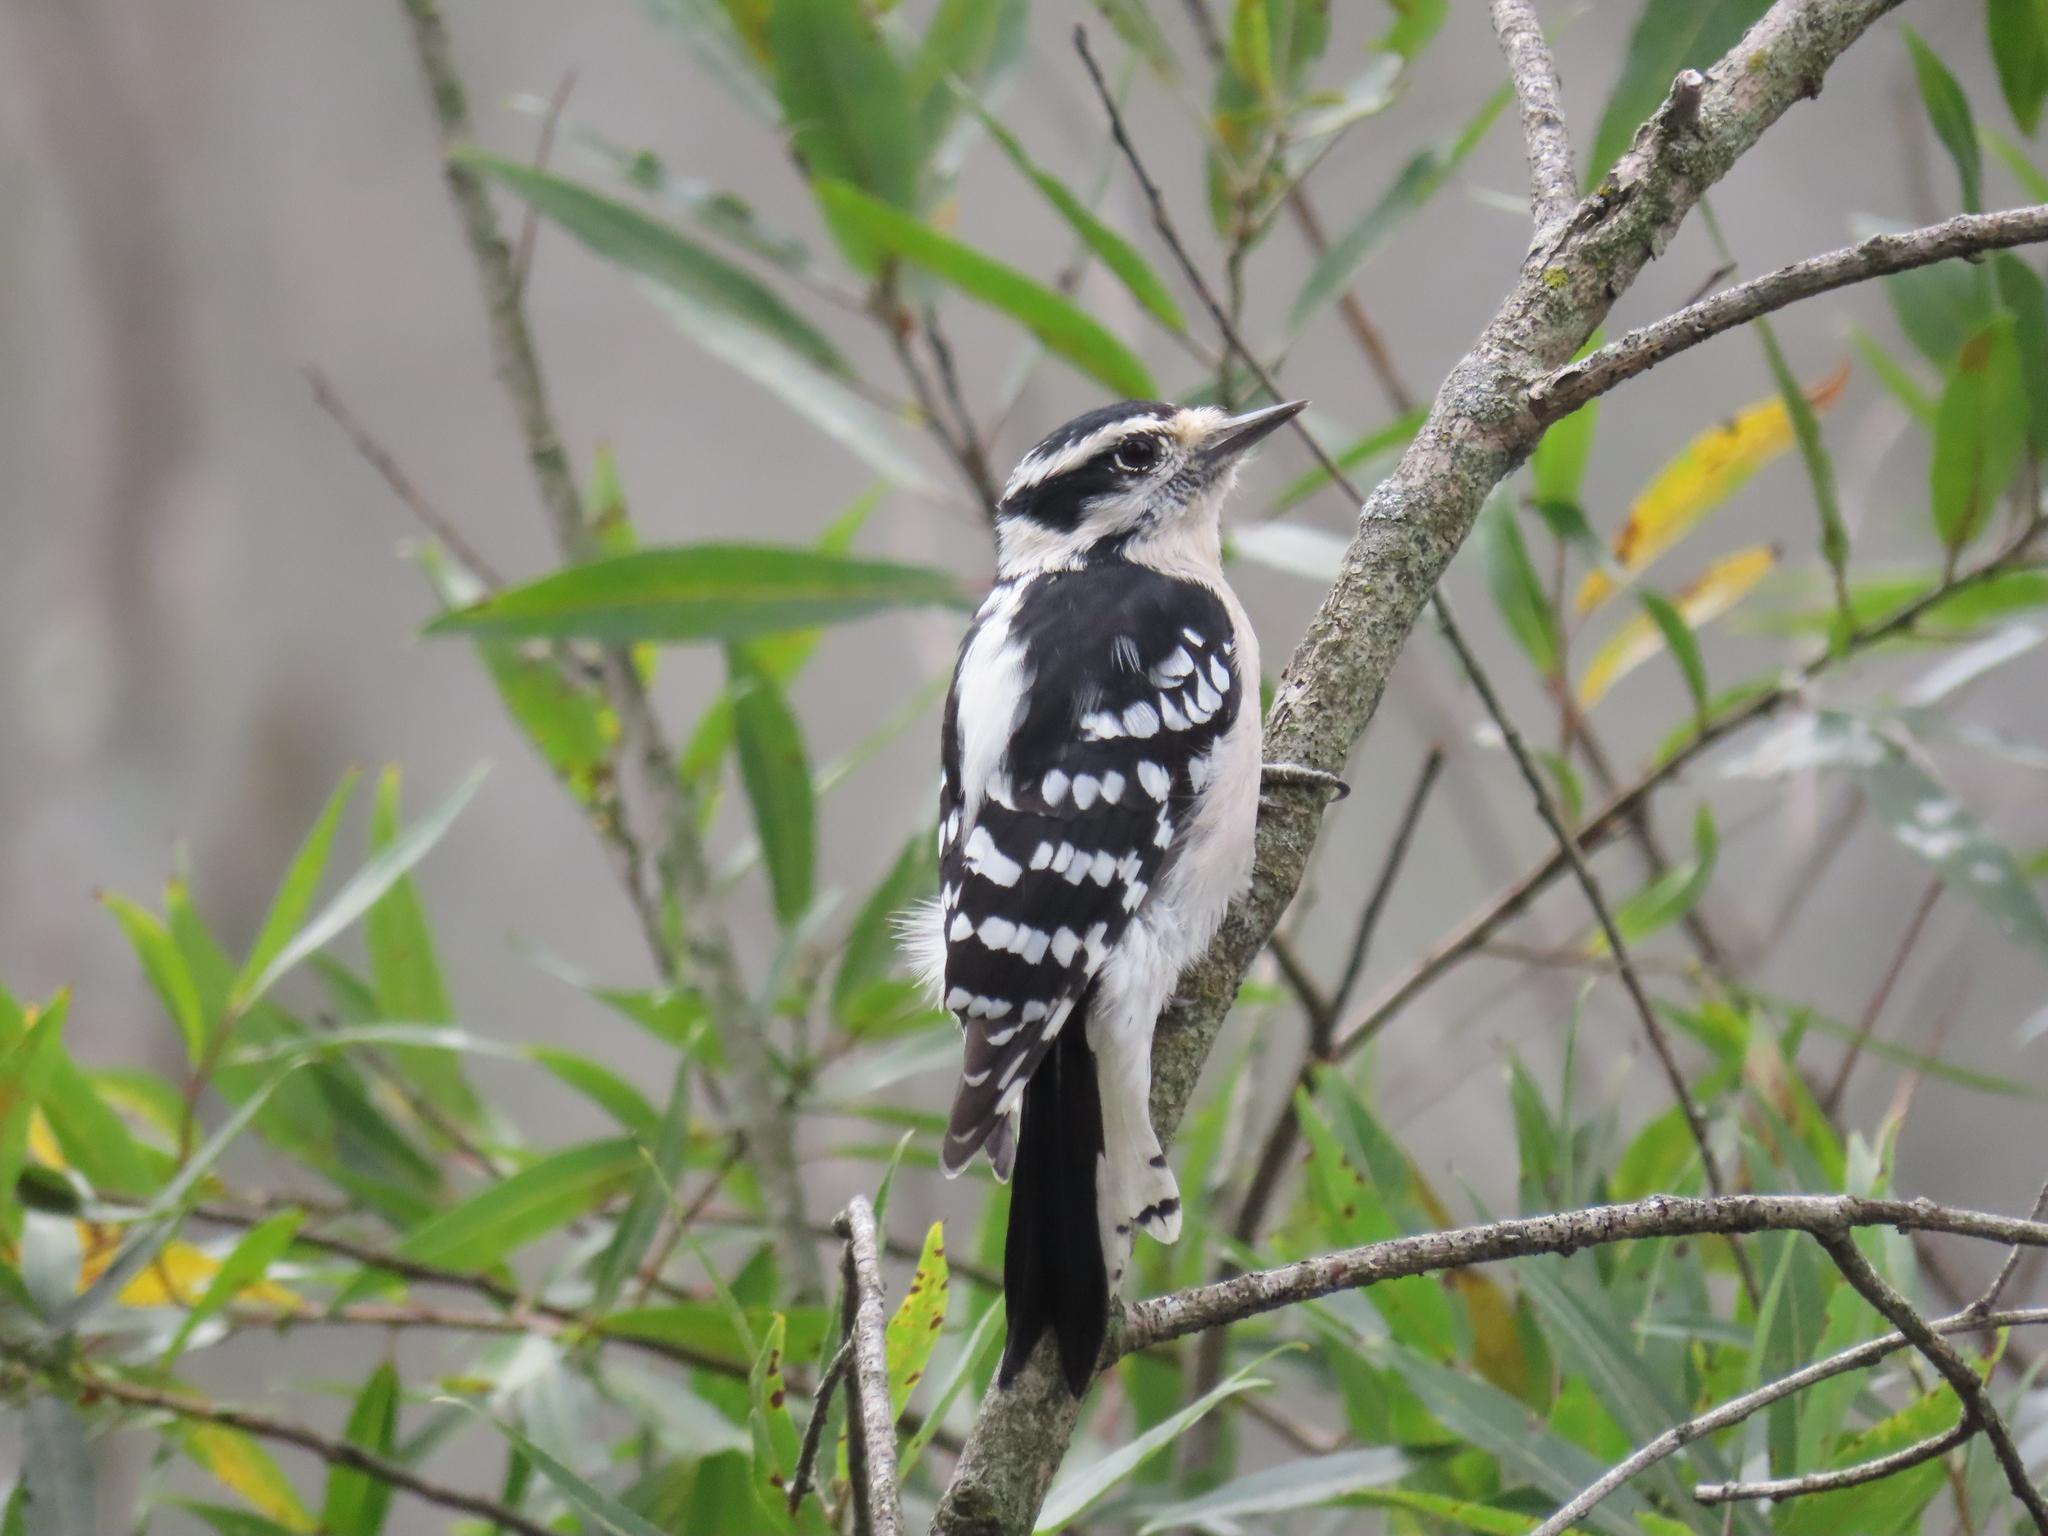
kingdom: Animalia
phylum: Chordata
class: Aves
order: Piciformes
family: Picidae
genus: Dryobates
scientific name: Dryobates pubescens
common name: Downy woodpecker
